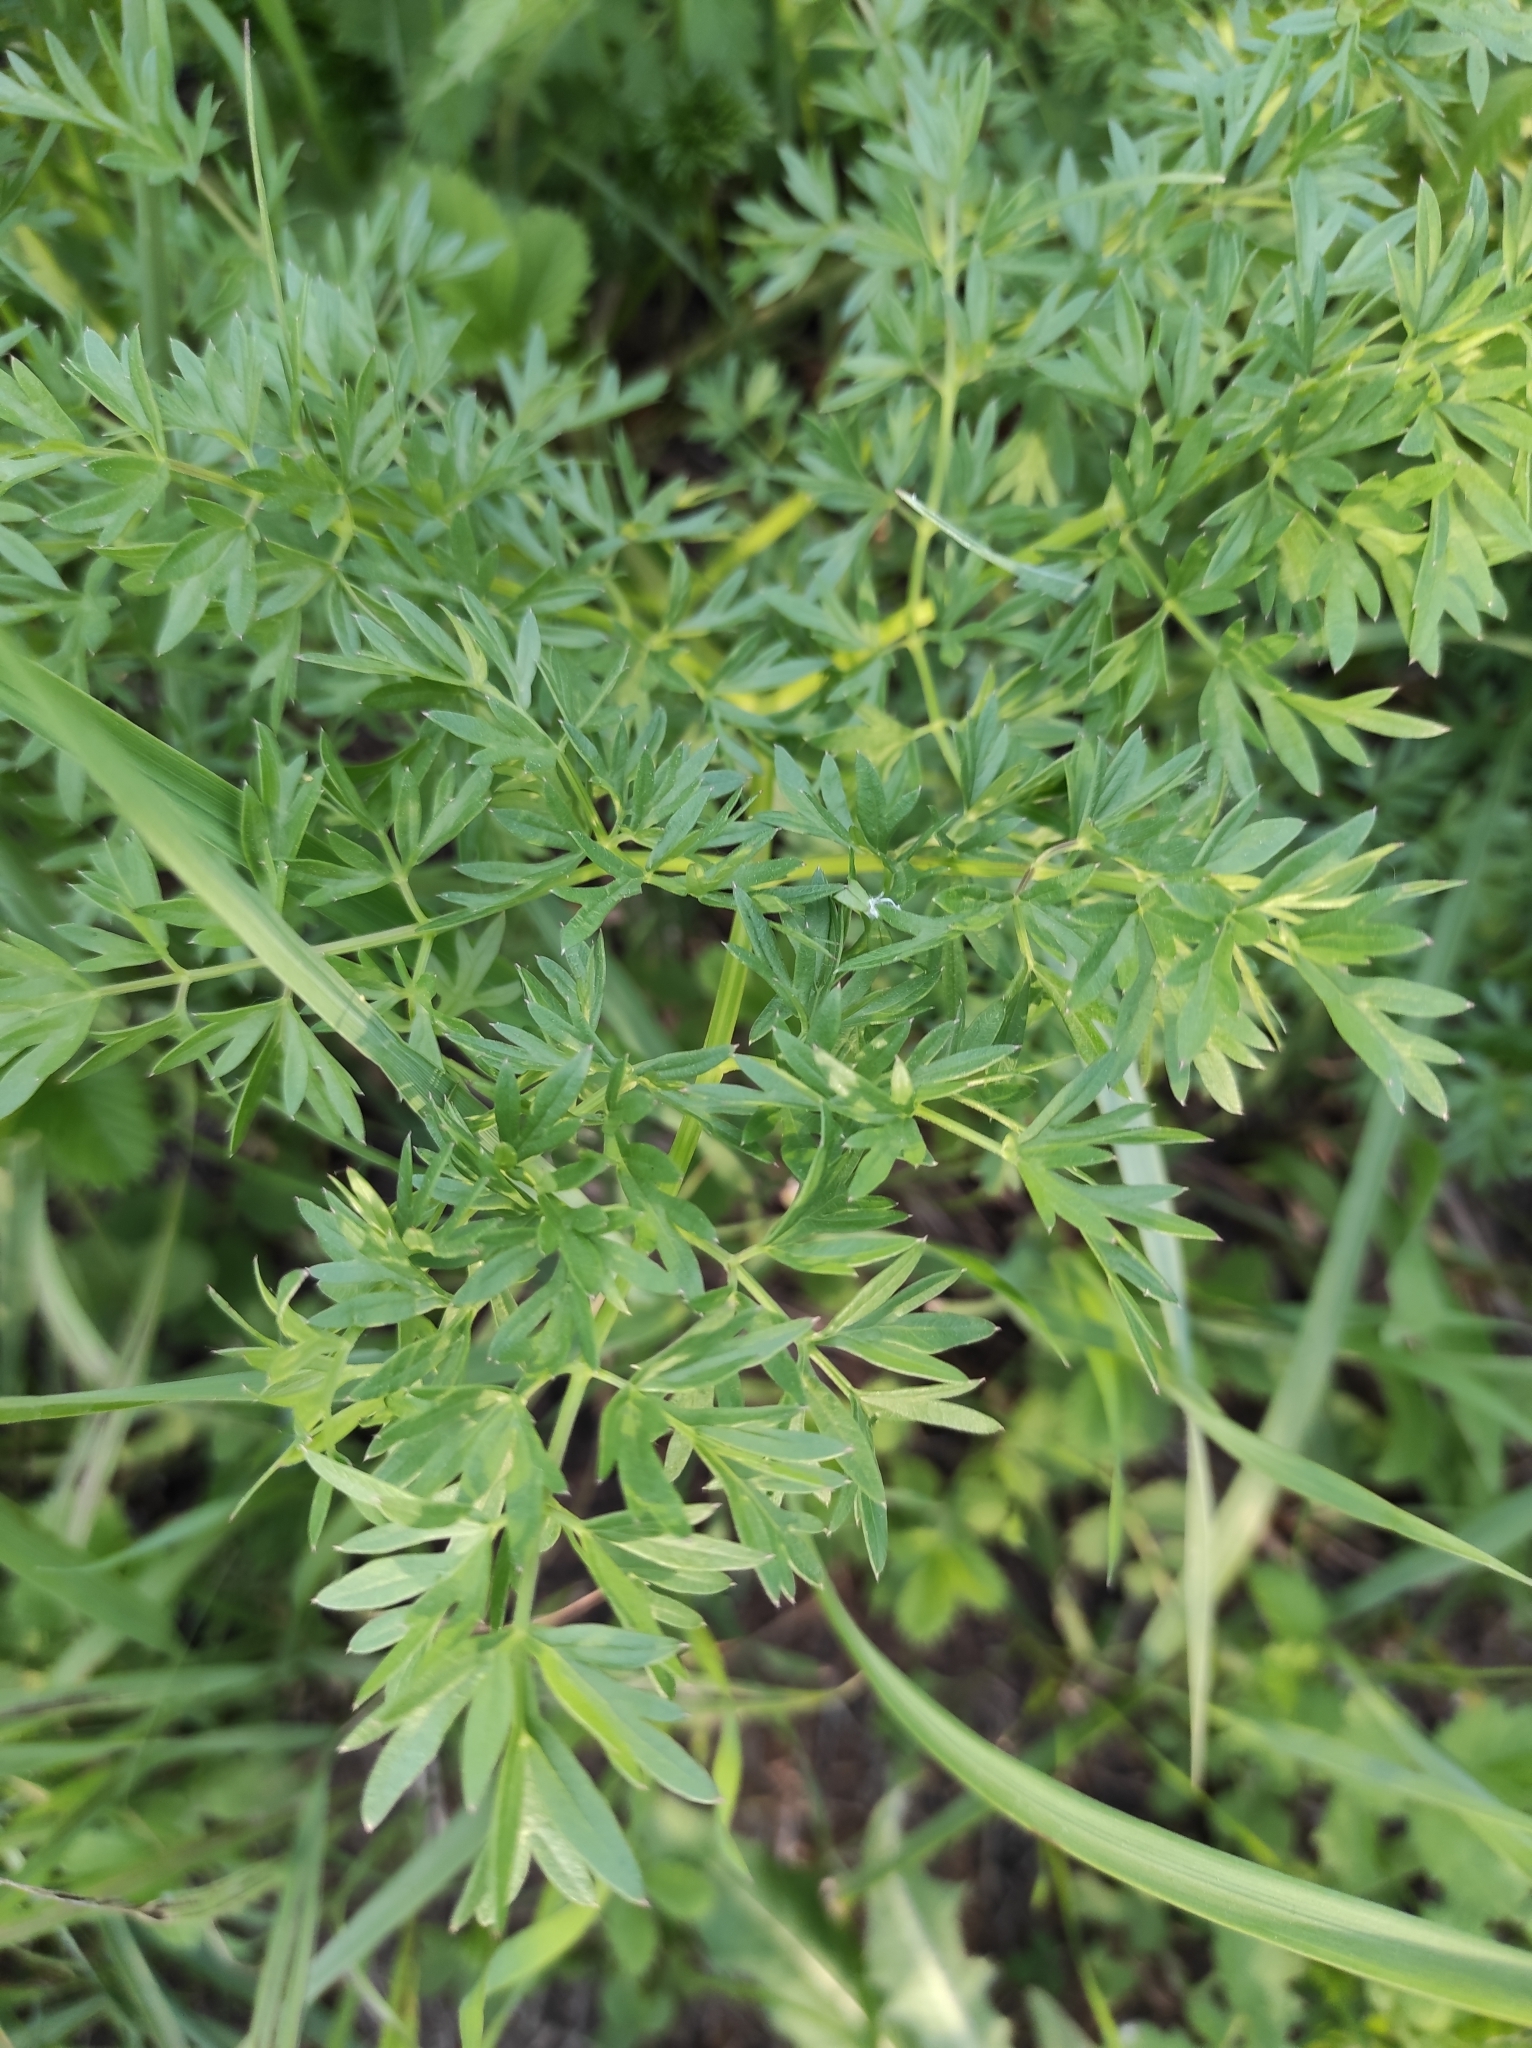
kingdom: Plantae
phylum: Tracheophyta
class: Magnoliopsida
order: Apiales
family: Apiaceae
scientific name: Apiaceae
